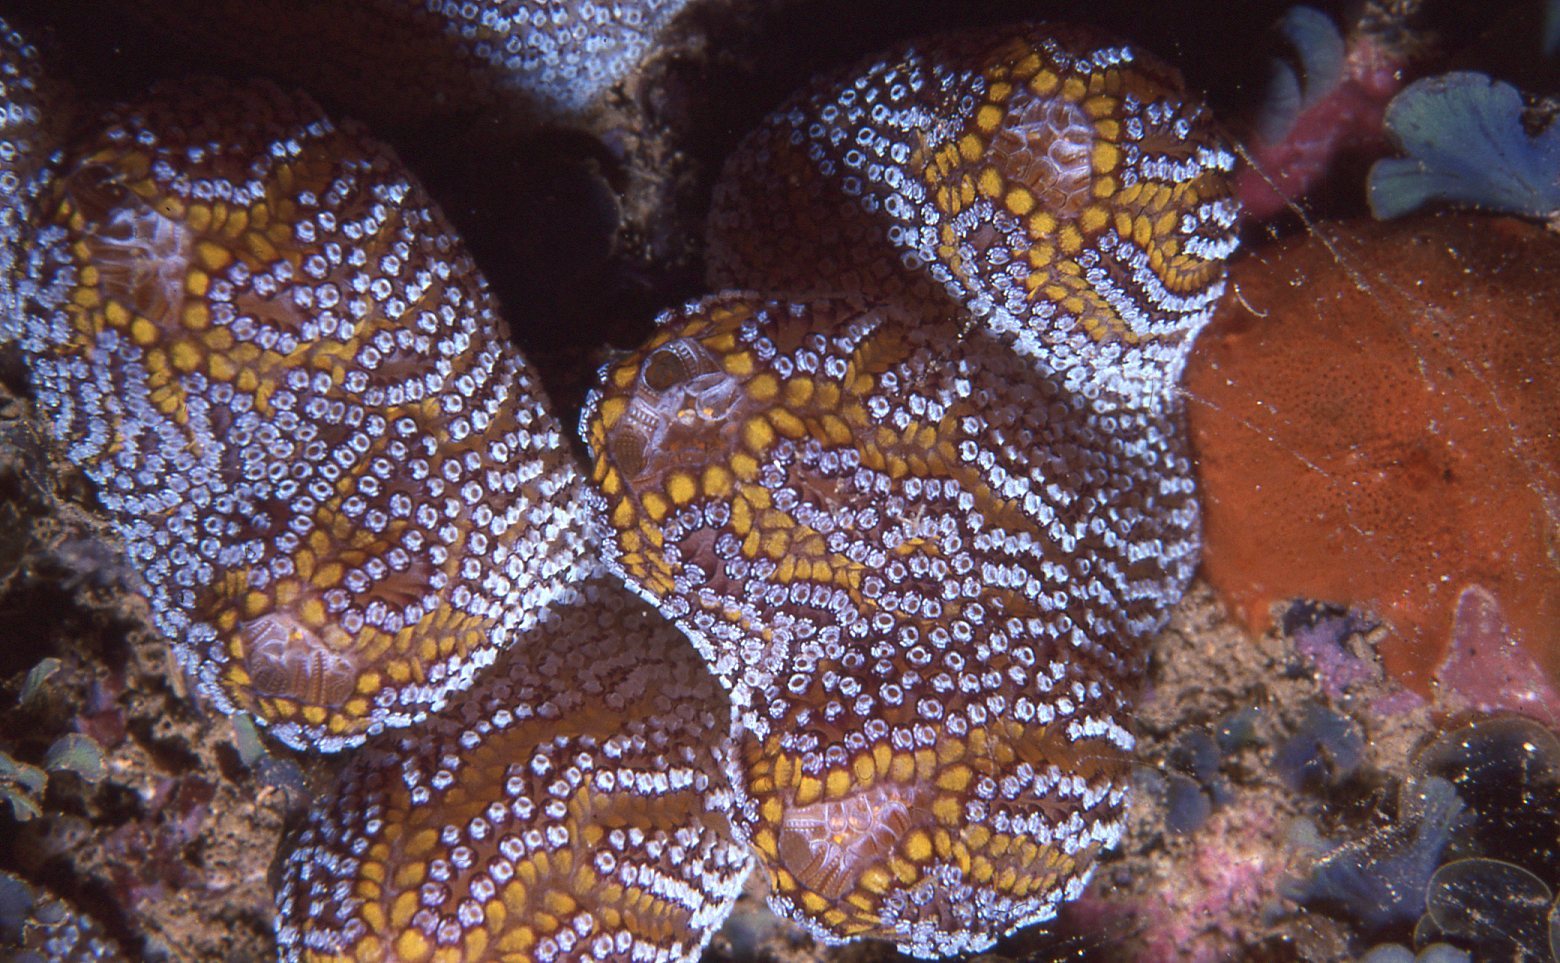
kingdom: Animalia
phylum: Chordata
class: Ascidiacea
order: Stolidobranchia
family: Styelidae
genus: Botrylloides
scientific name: Botrylloides magnicoecus
